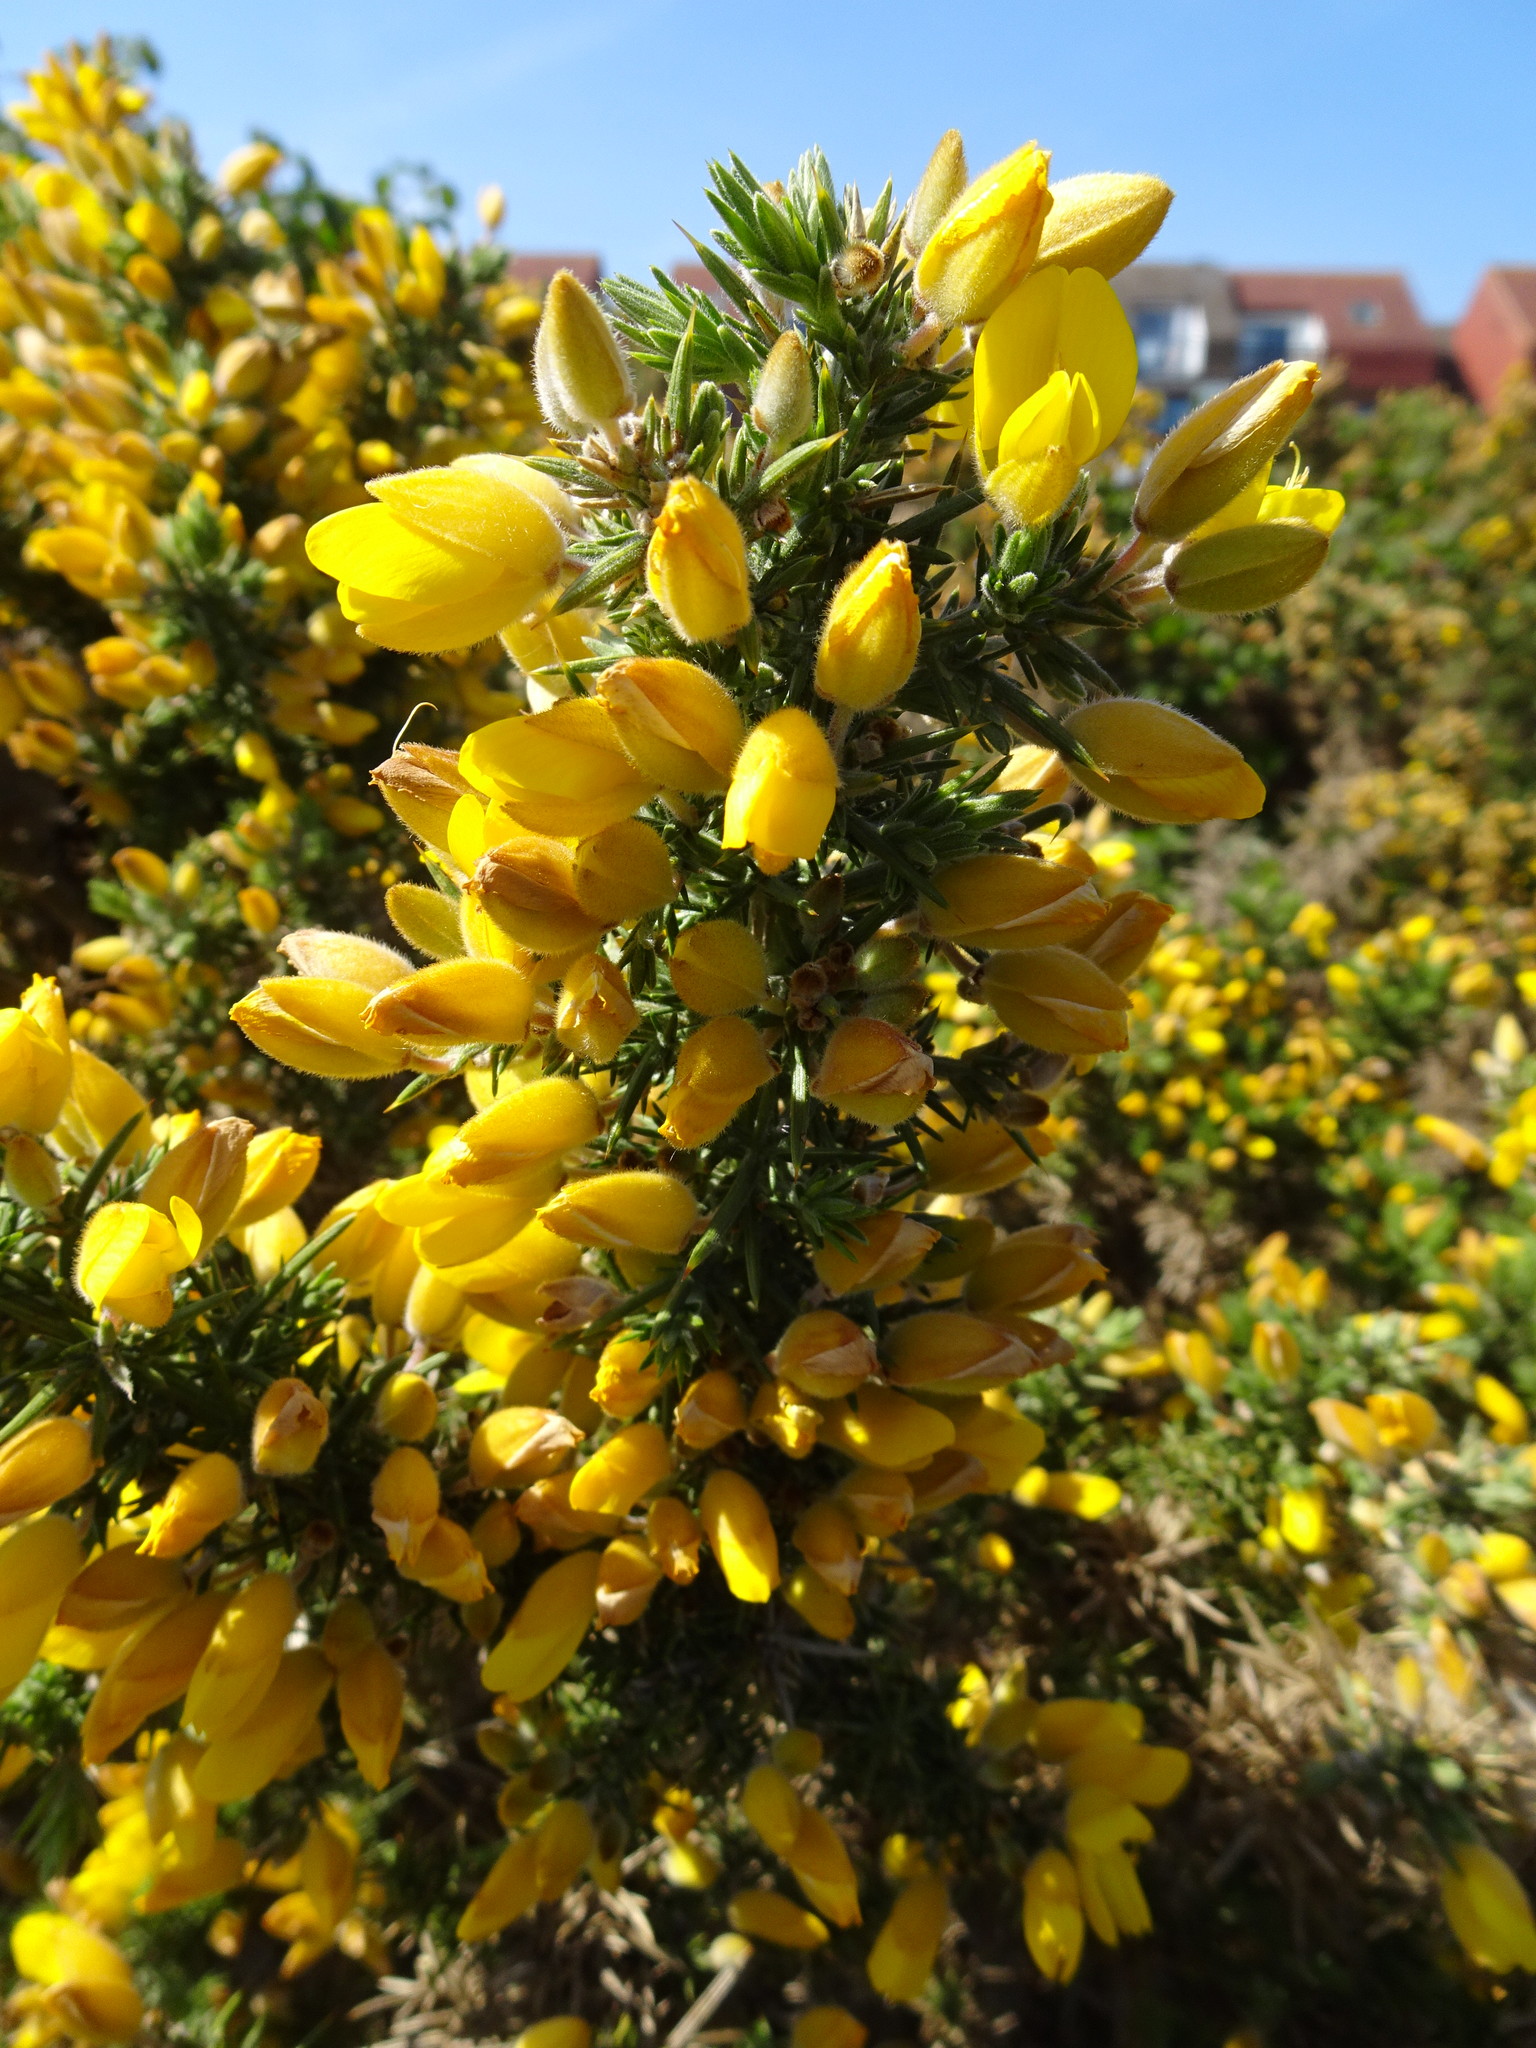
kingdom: Plantae
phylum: Tracheophyta
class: Magnoliopsida
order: Fabales
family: Fabaceae
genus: Ulex
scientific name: Ulex europaeus
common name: Common gorse
